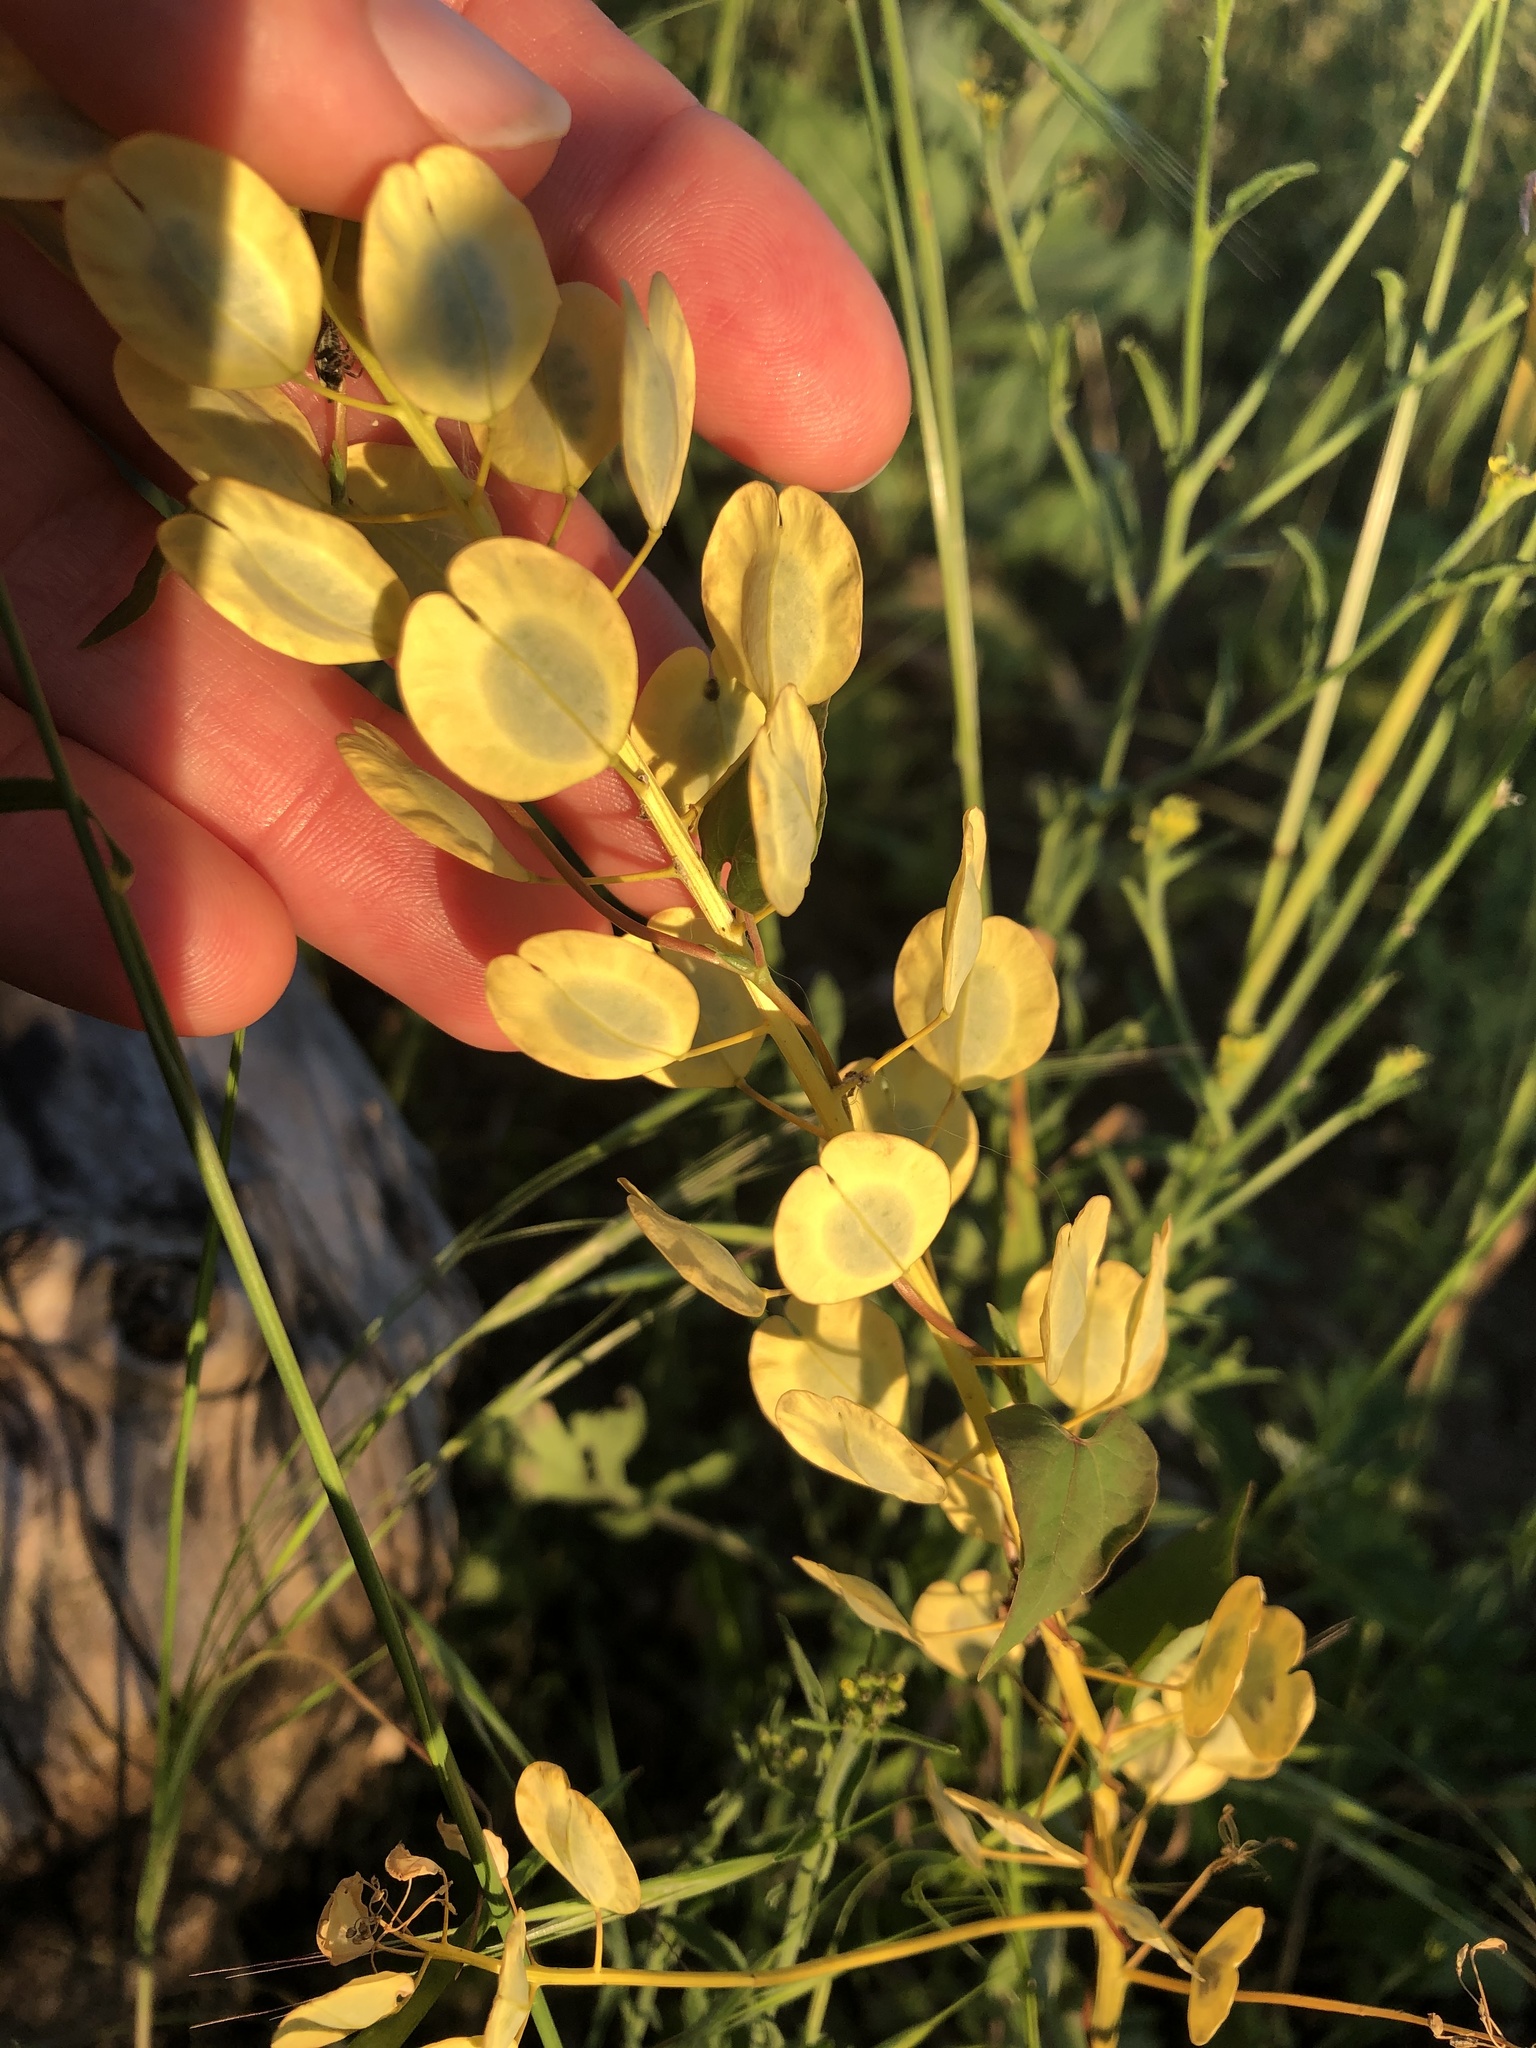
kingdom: Plantae
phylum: Tracheophyta
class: Magnoliopsida
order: Brassicales
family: Brassicaceae
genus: Thlaspi
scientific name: Thlaspi arvense
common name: Field pennycress
